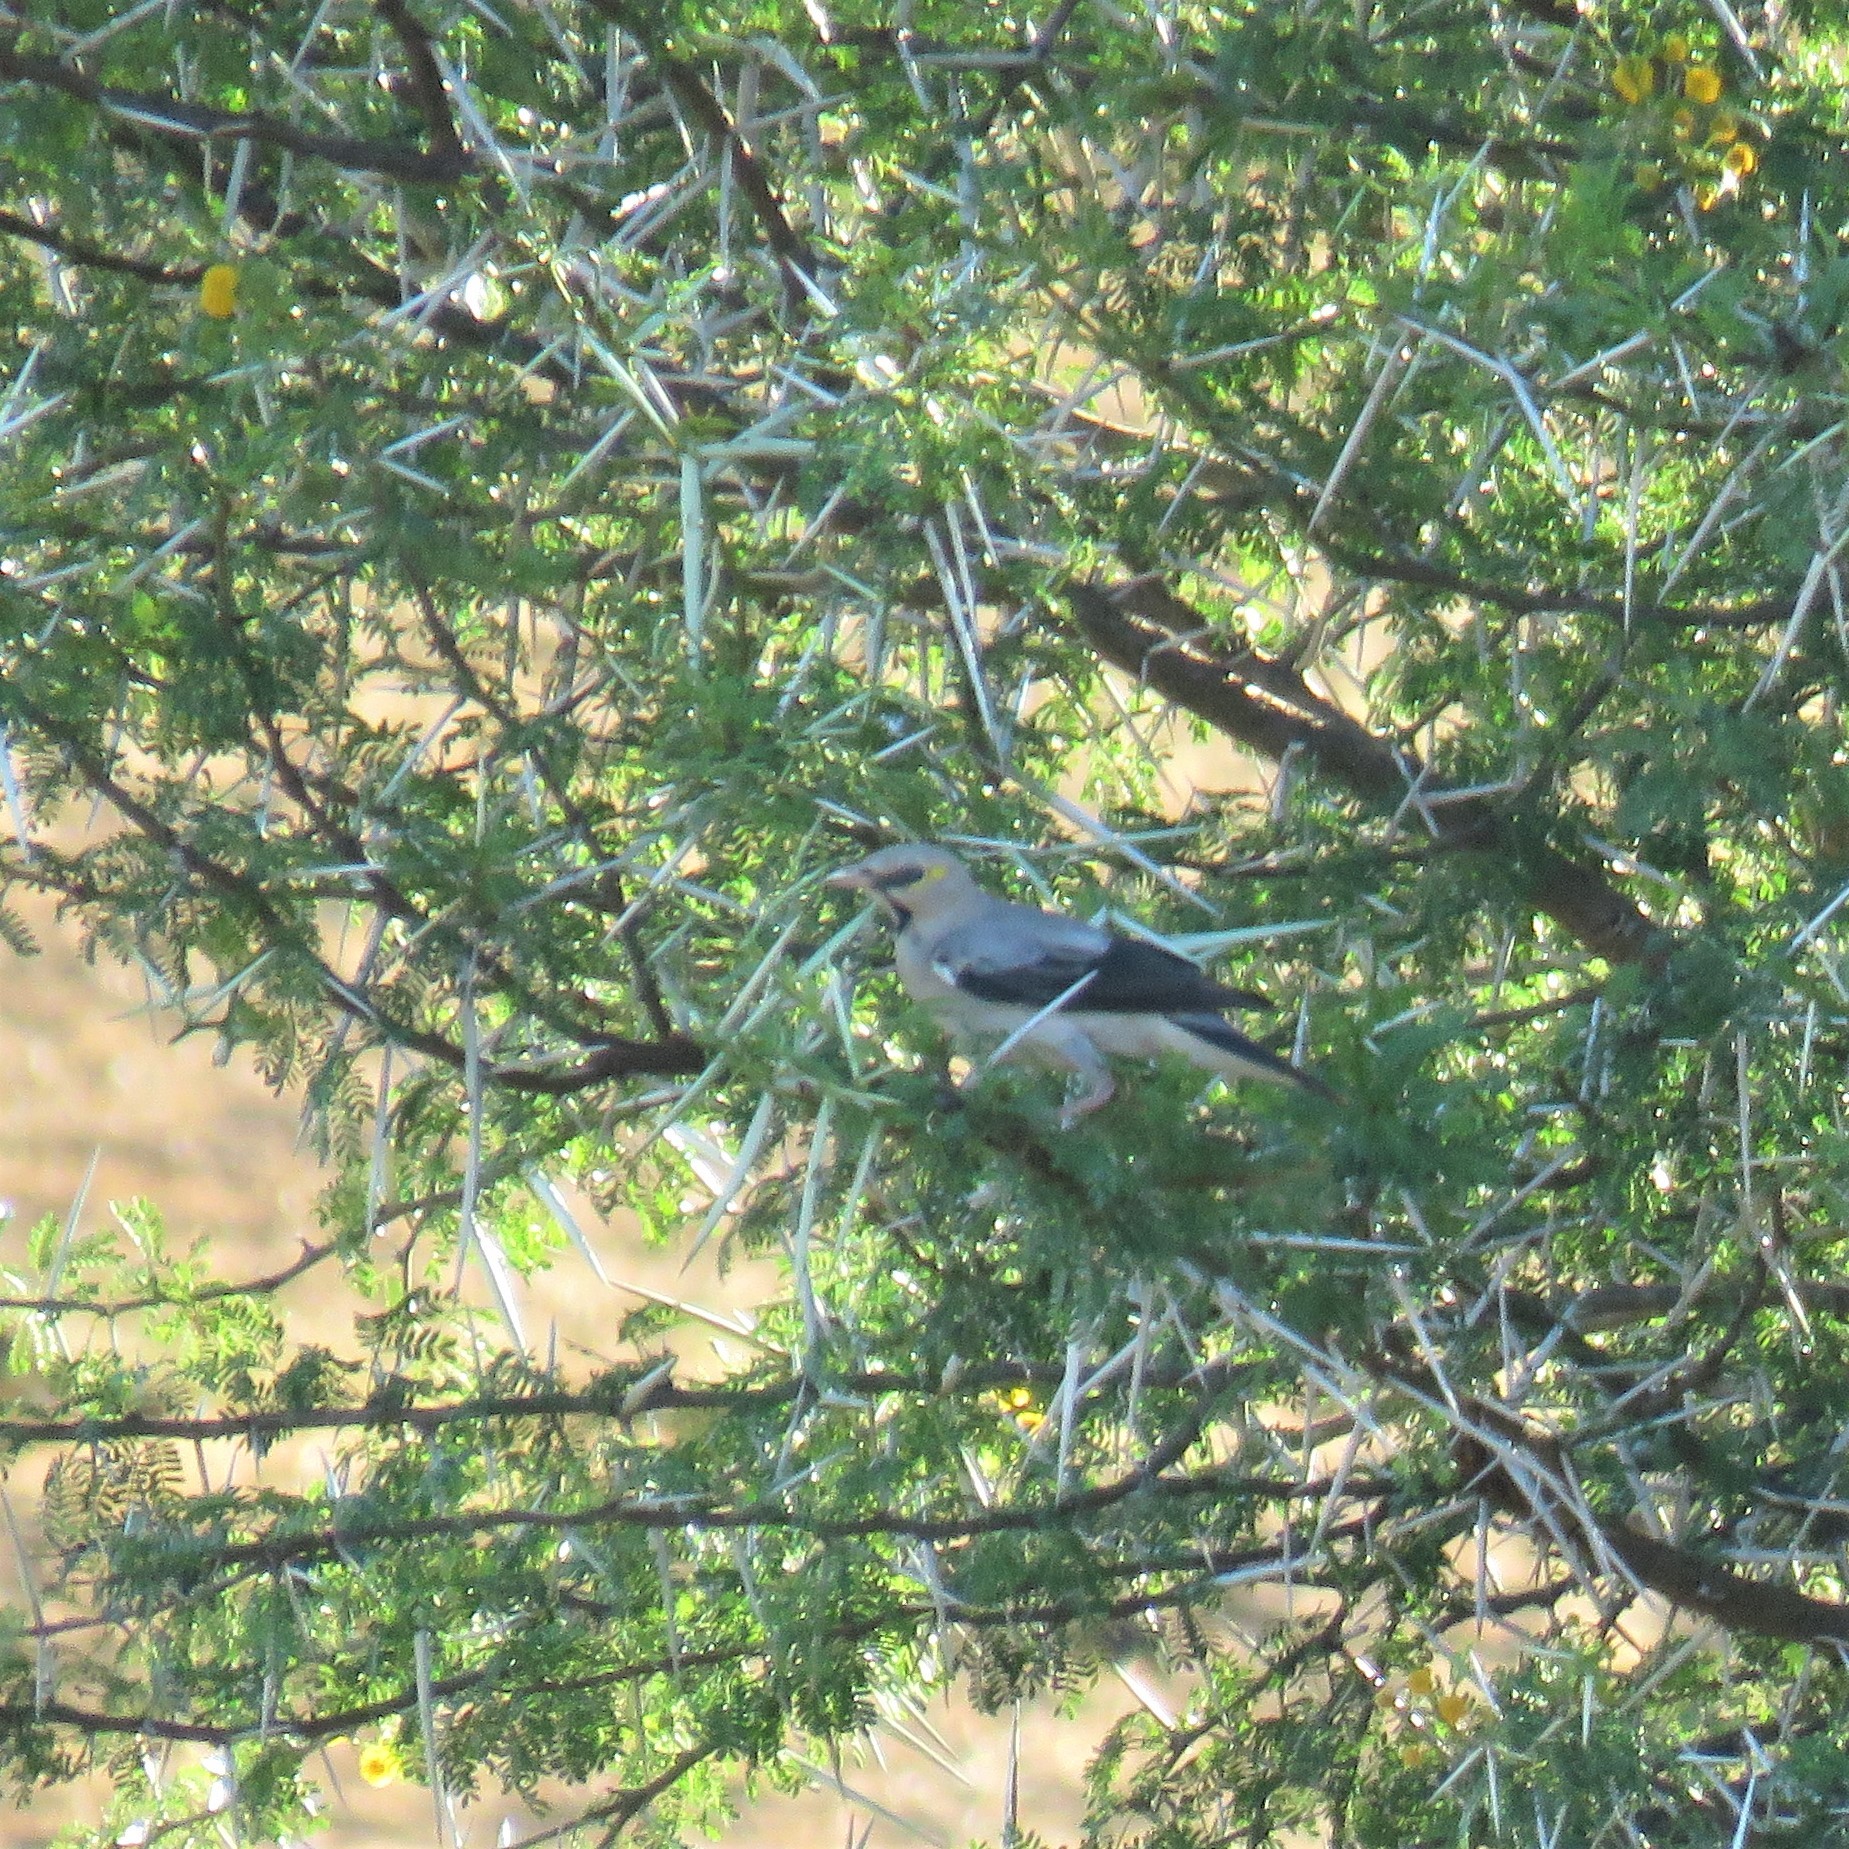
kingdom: Animalia
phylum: Chordata
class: Aves
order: Passeriformes
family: Sturnidae
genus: Creatophora
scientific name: Creatophora cinerea
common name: Wattled starling
